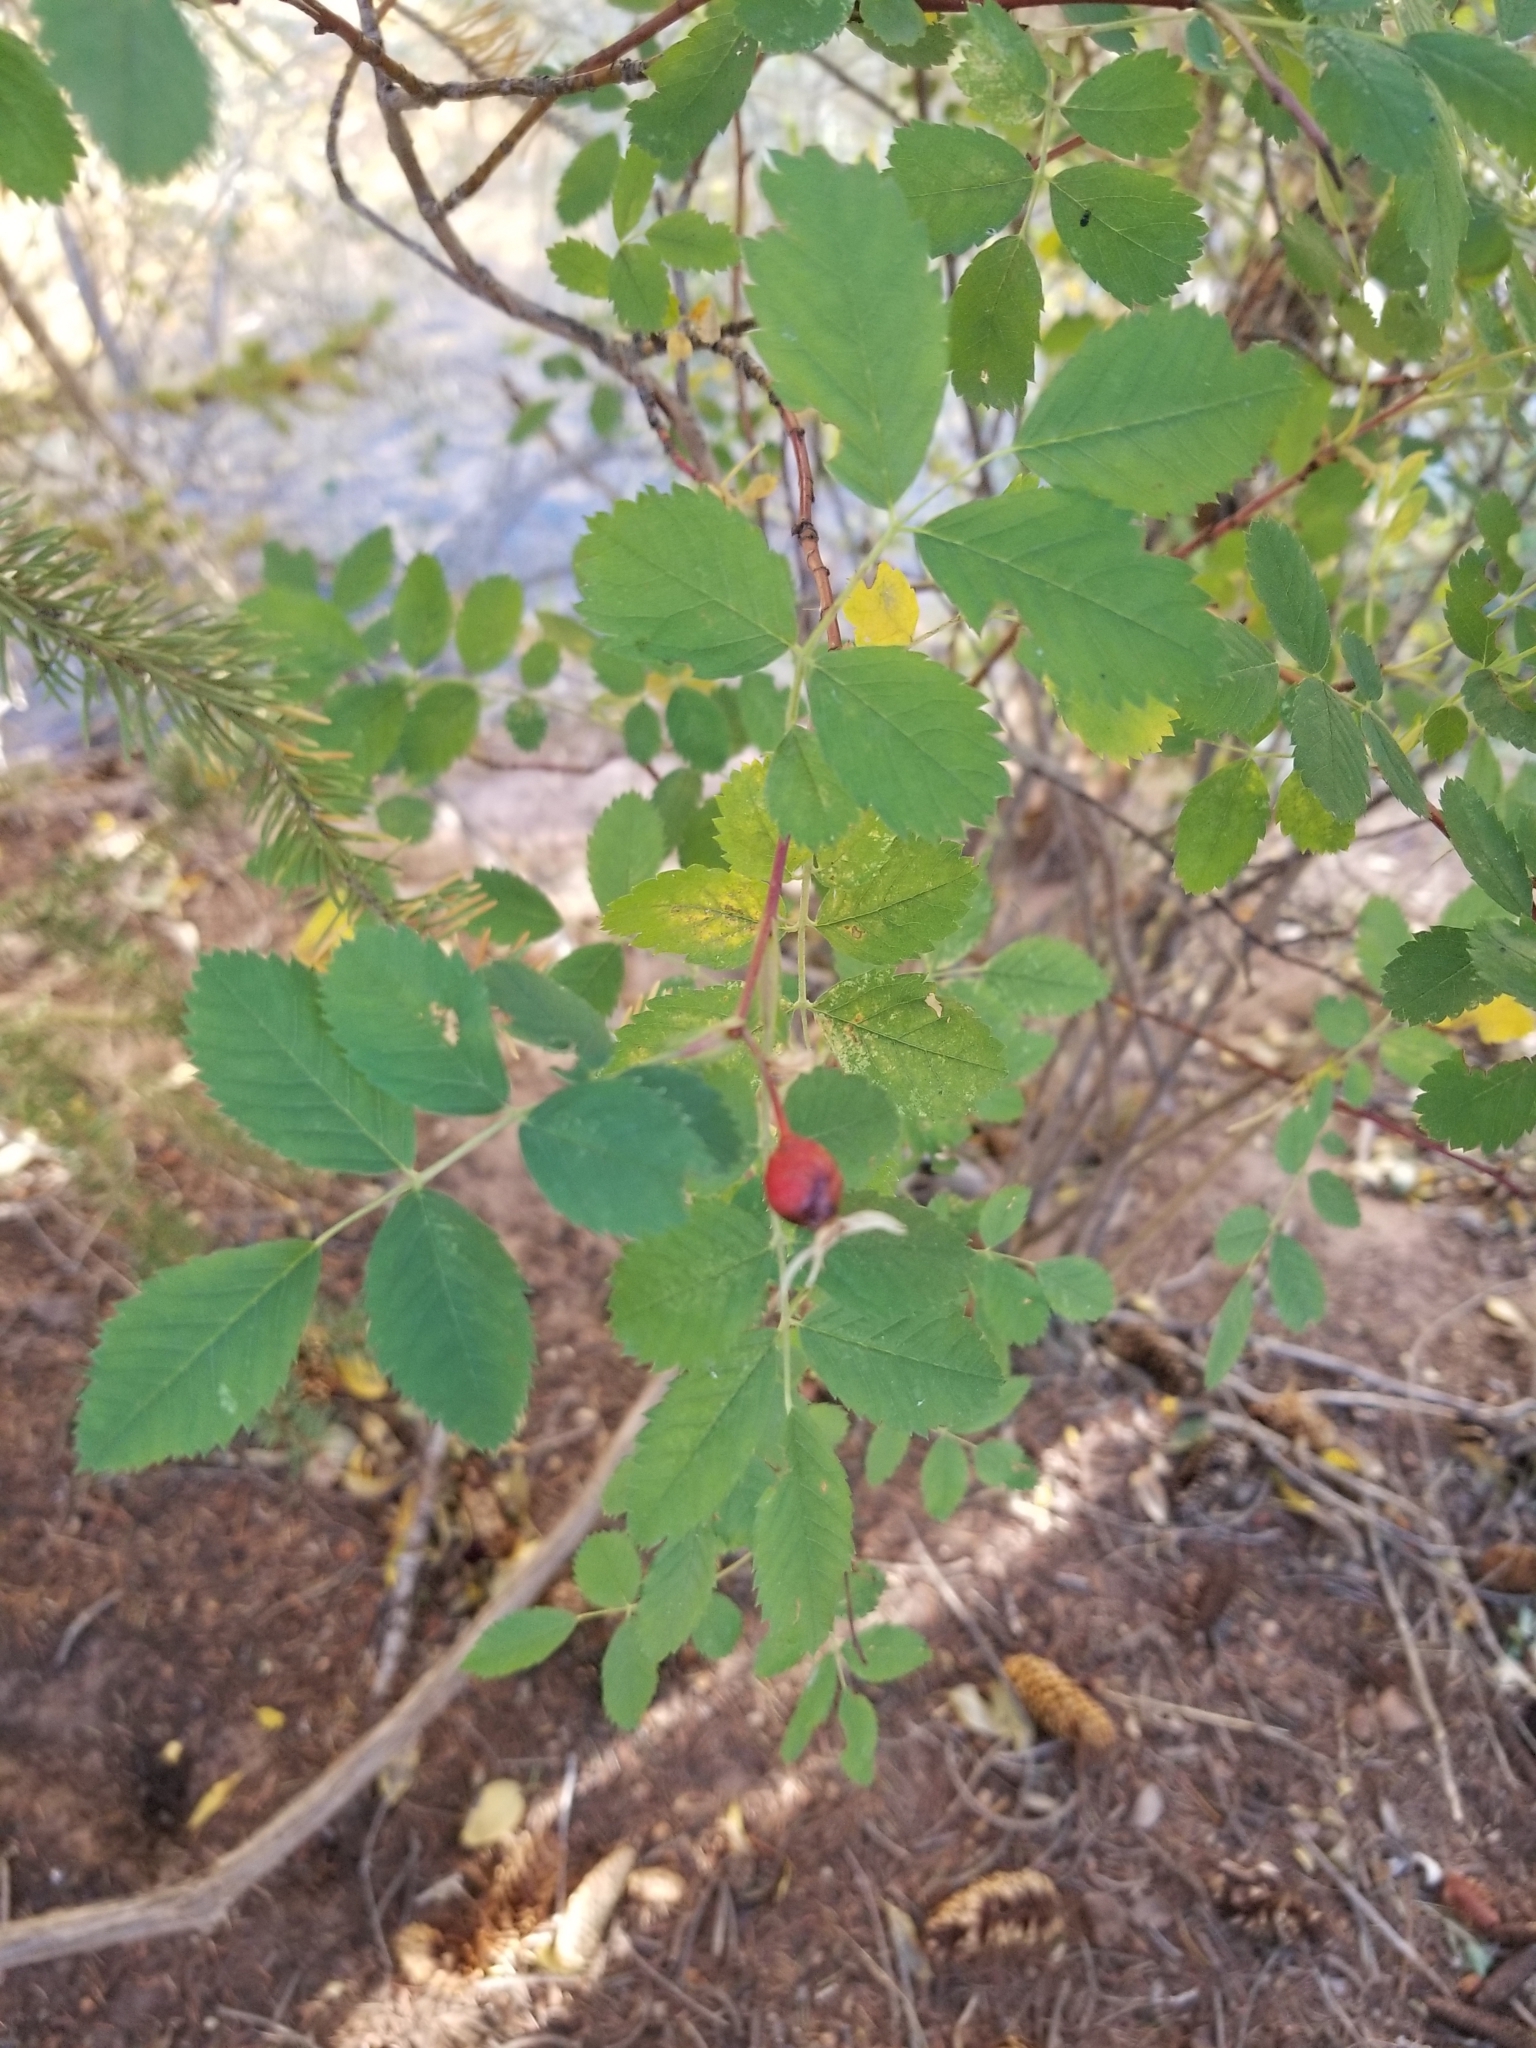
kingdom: Plantae
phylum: Tracheophyta
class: Magnoliopsida
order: Rosales
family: Rosaceae
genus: Rosa
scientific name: Rosa woodsii
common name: Woods's rose
